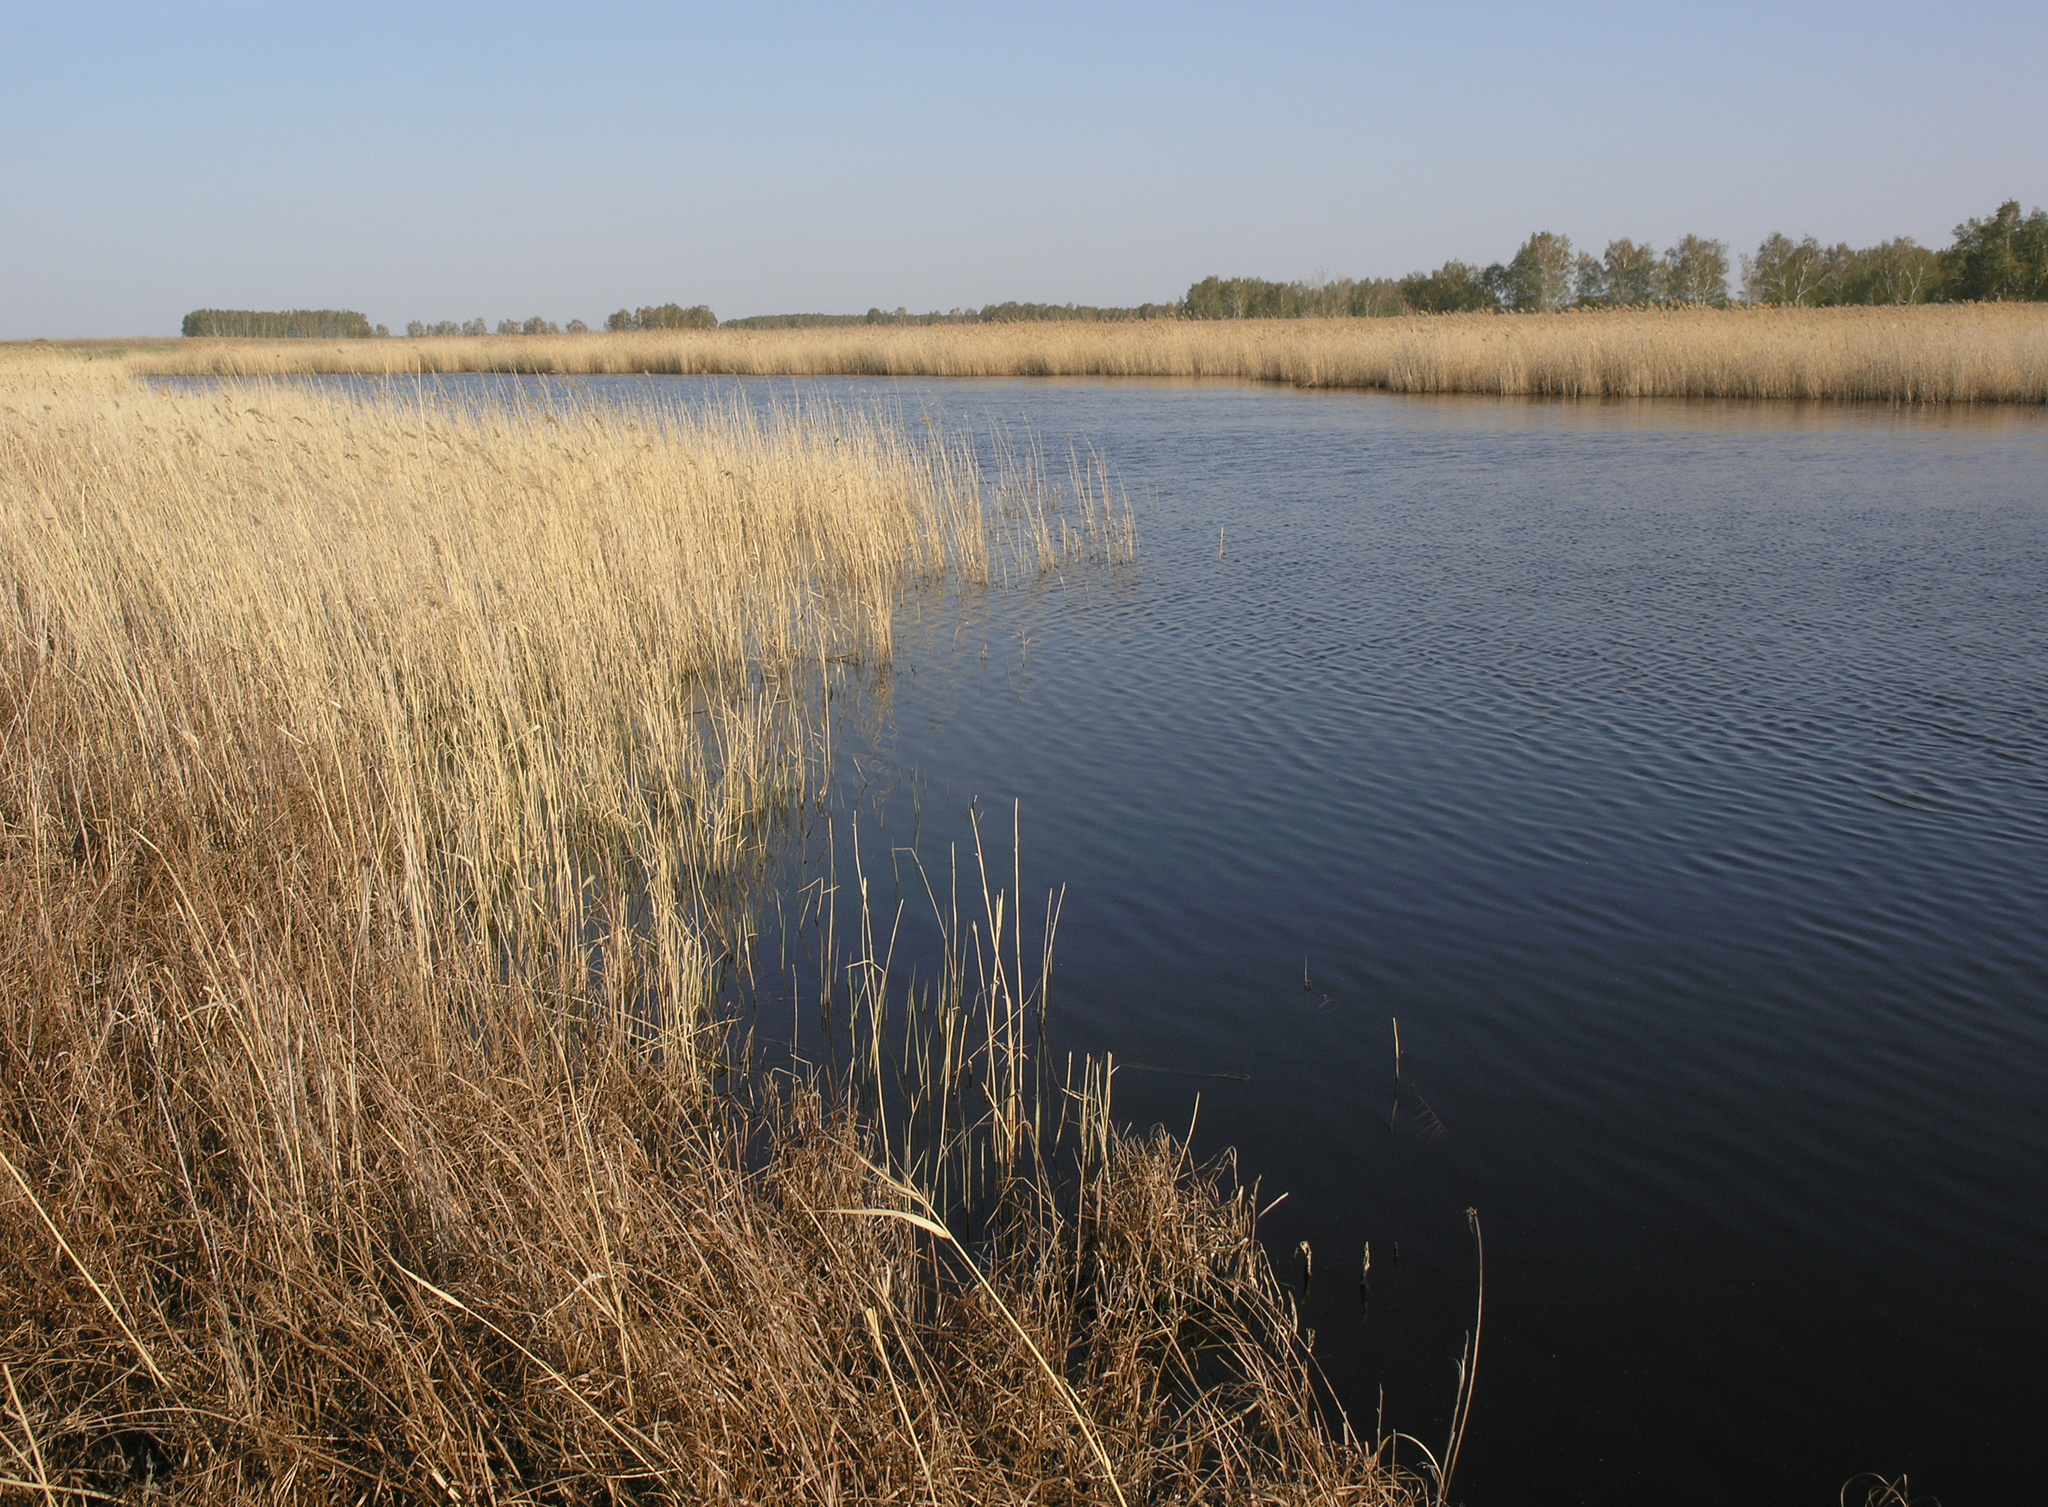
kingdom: Plantae
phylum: Tracheophyta
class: Liliopsida
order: Poales
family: Poaceae
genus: Phragmites
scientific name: Phragmites australis
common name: Common reed
